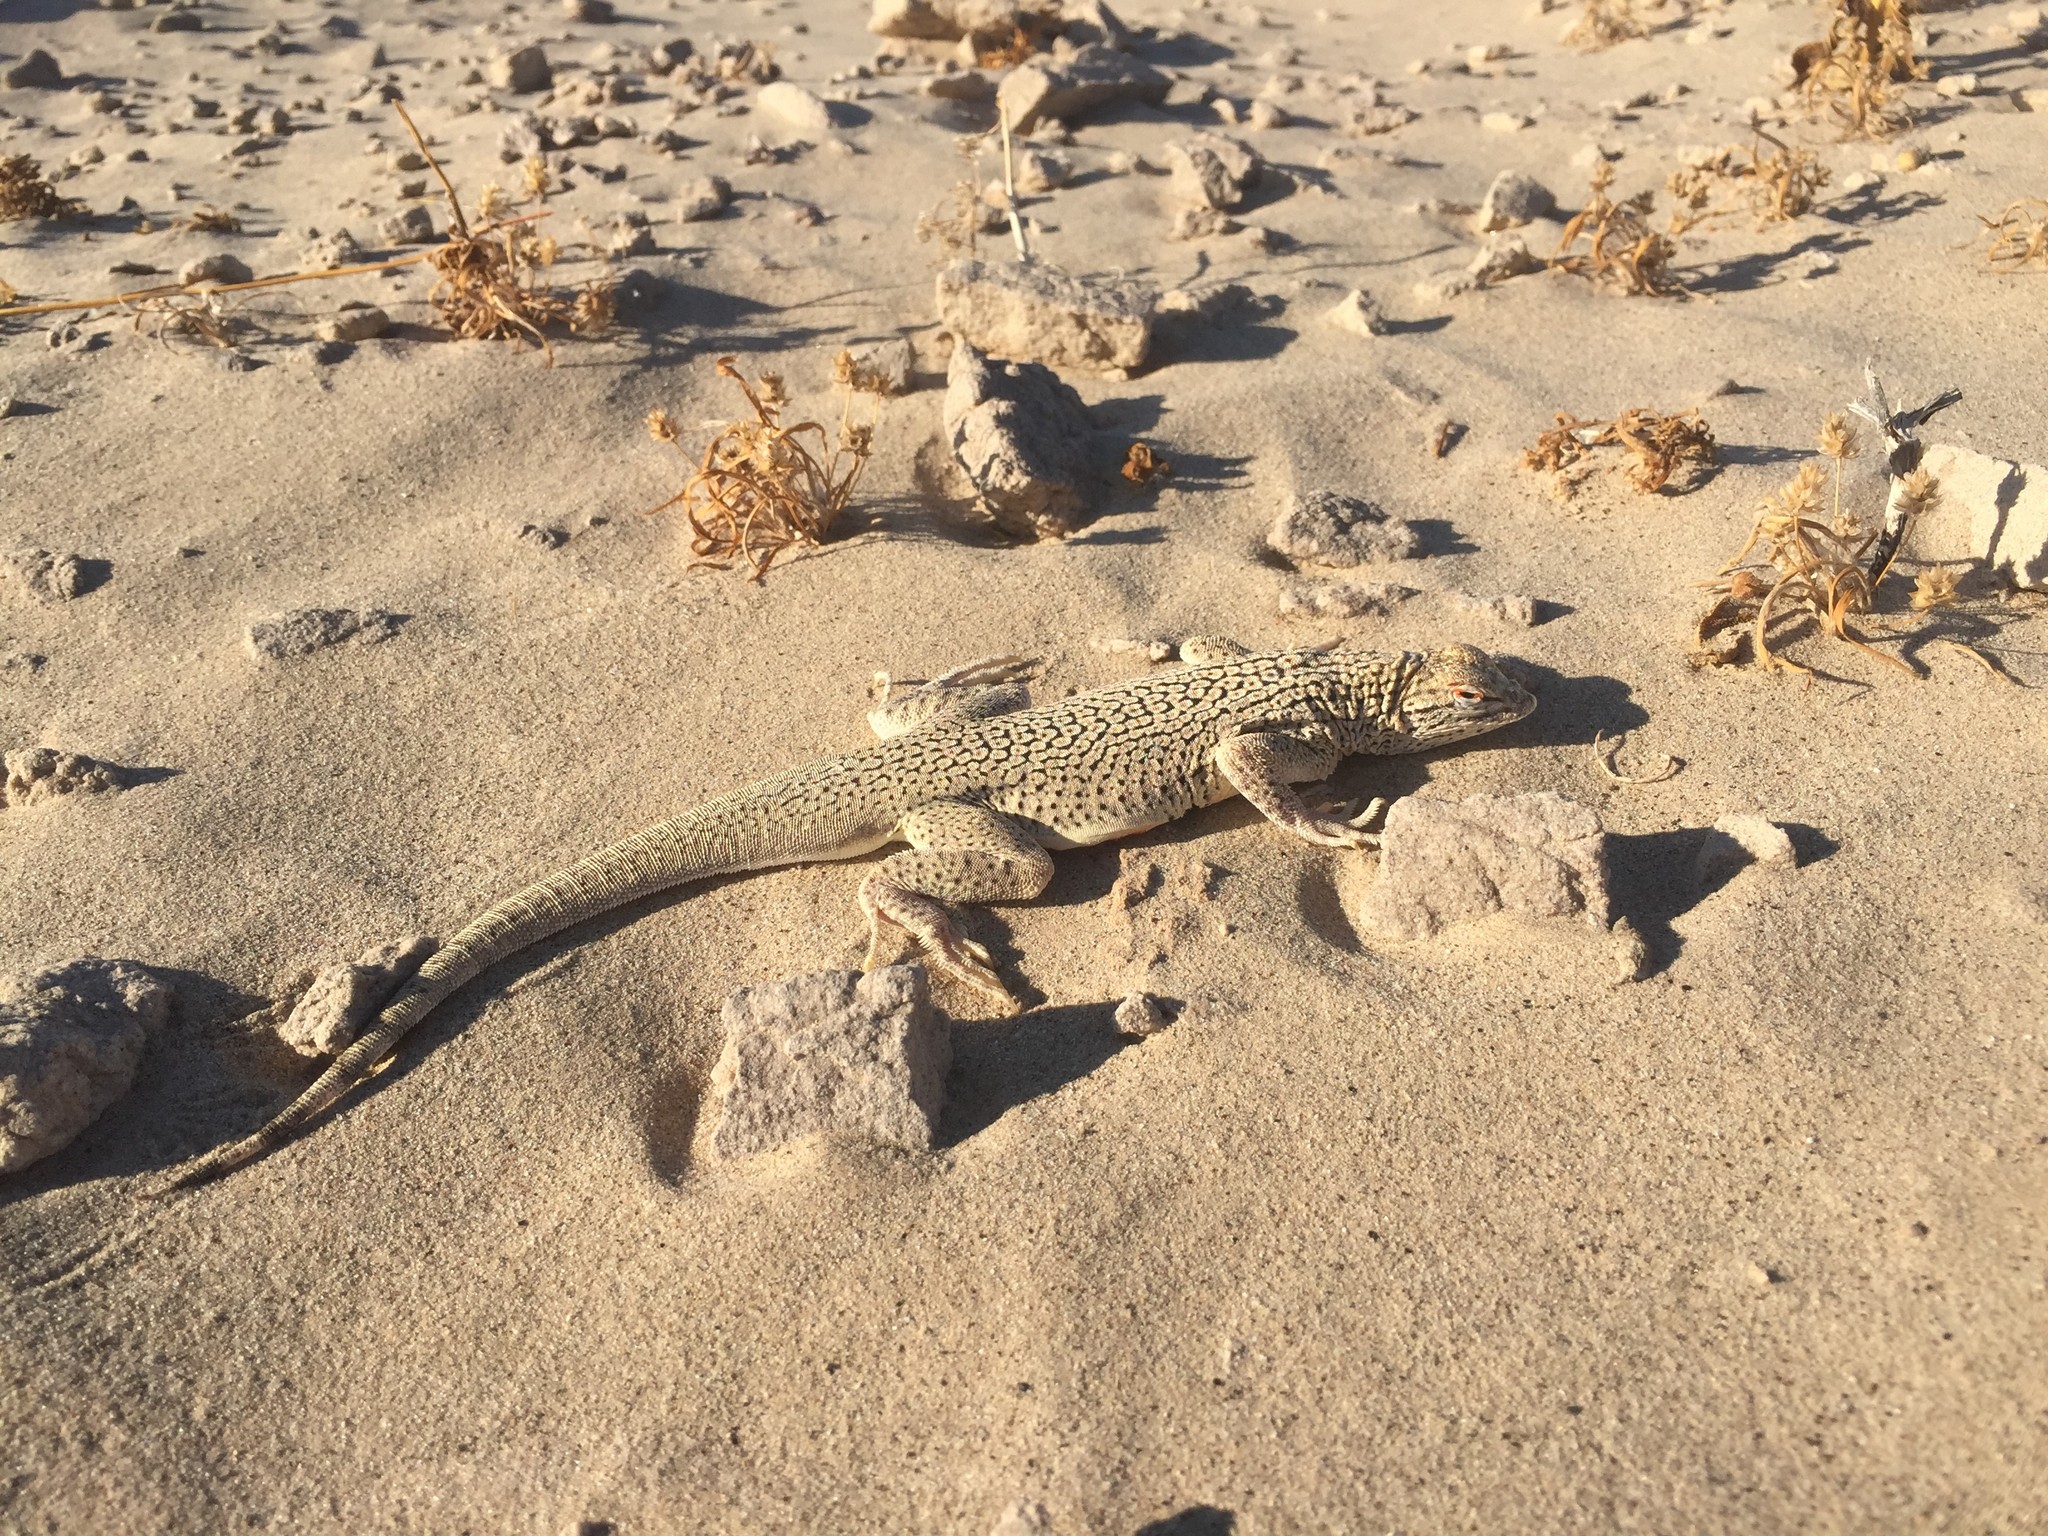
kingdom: Animalia
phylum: Chordata
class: Squamata
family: Phrynosomatidae
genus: Uma
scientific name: Uma notata
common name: Colorado desert fringe-toed lizard
